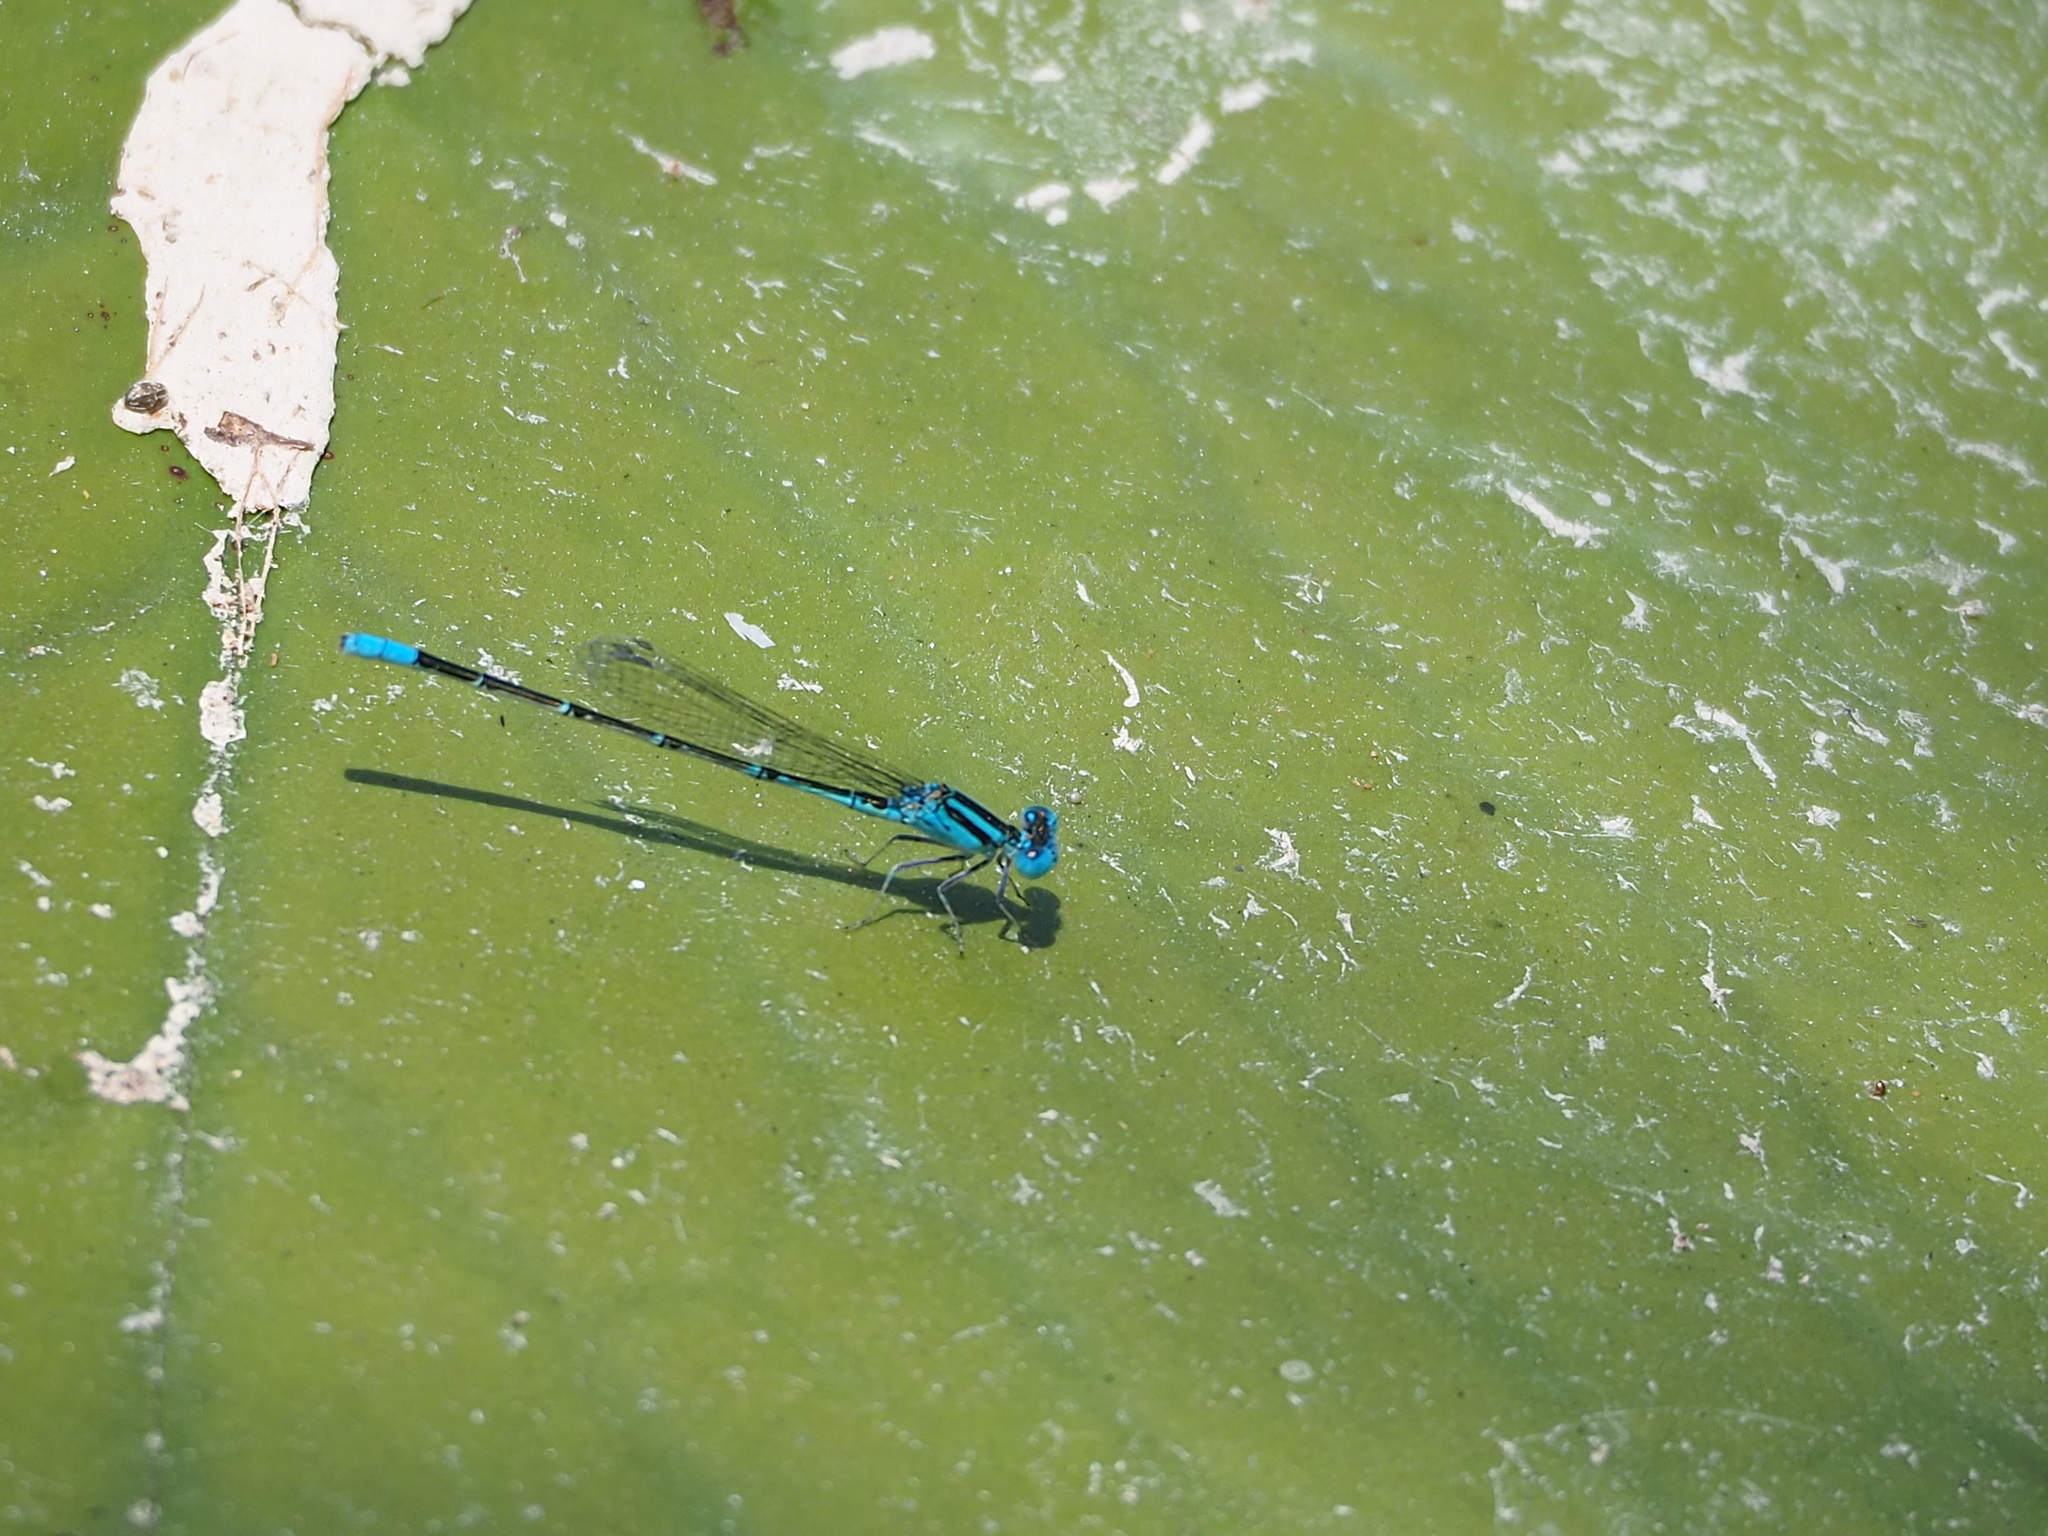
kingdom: Animalia
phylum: Arthropoda
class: Insecta
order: Odonata
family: Coenagrionidae
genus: Paracercion
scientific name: Paracercion melanotum
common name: Eastern lilysquatter
